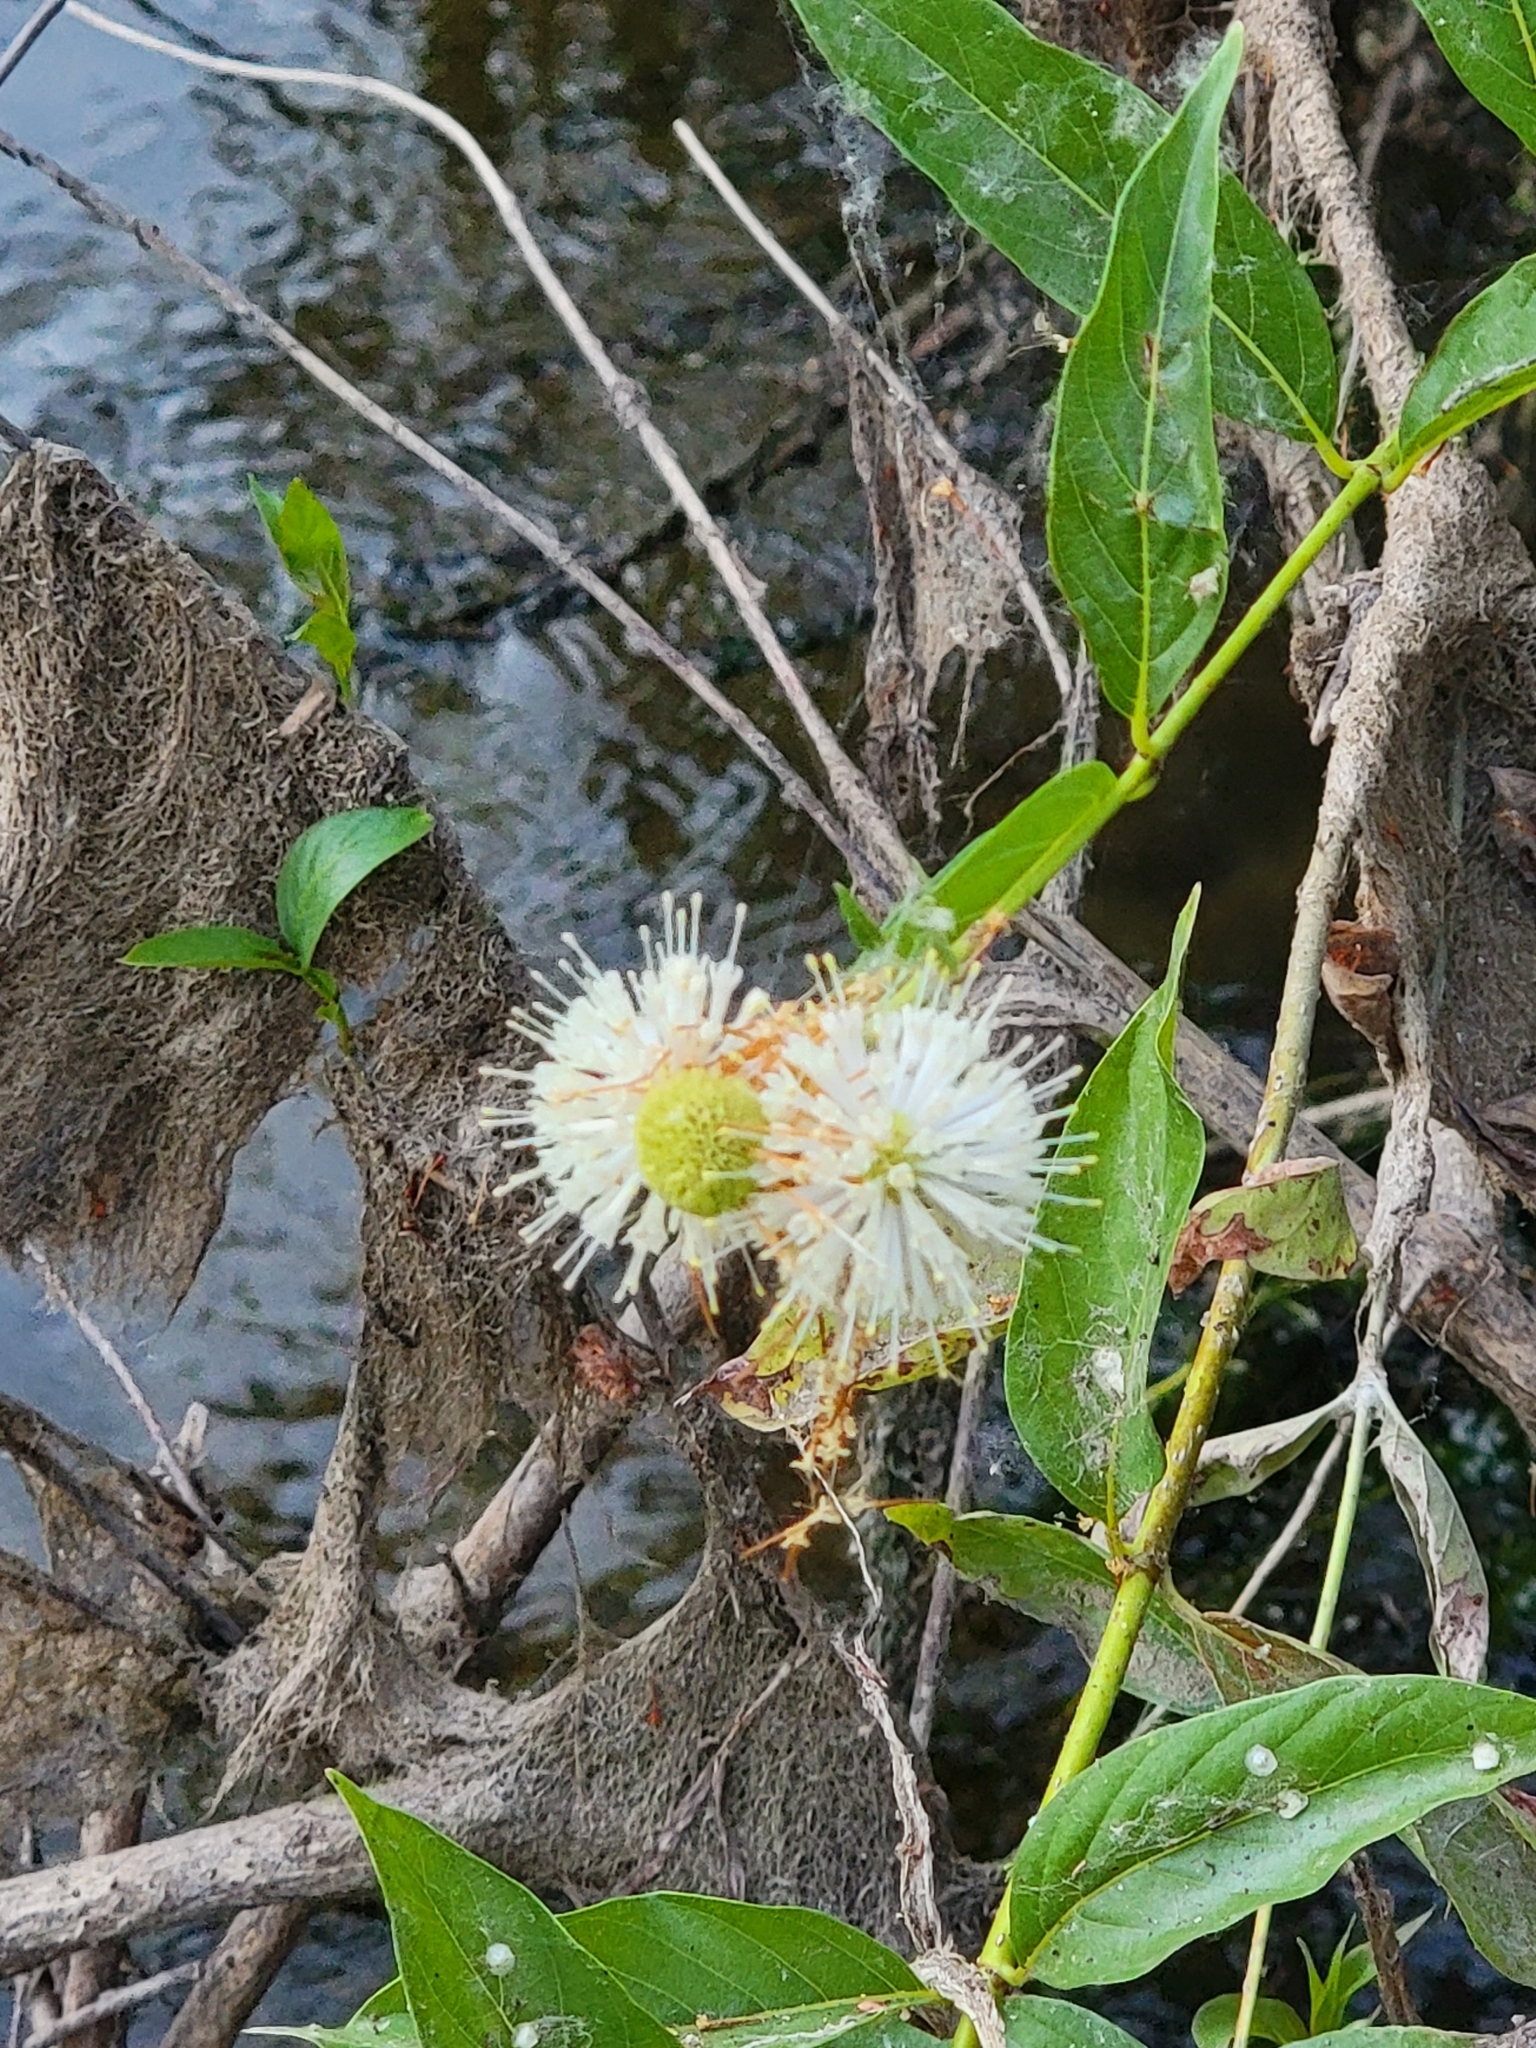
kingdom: Plantae
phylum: Tracheophyta
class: Magnoliopsida
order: Gentianales
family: Rubiaceae
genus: Cephalanthus
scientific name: Cephalanthus occidentalis
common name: Button-willow
